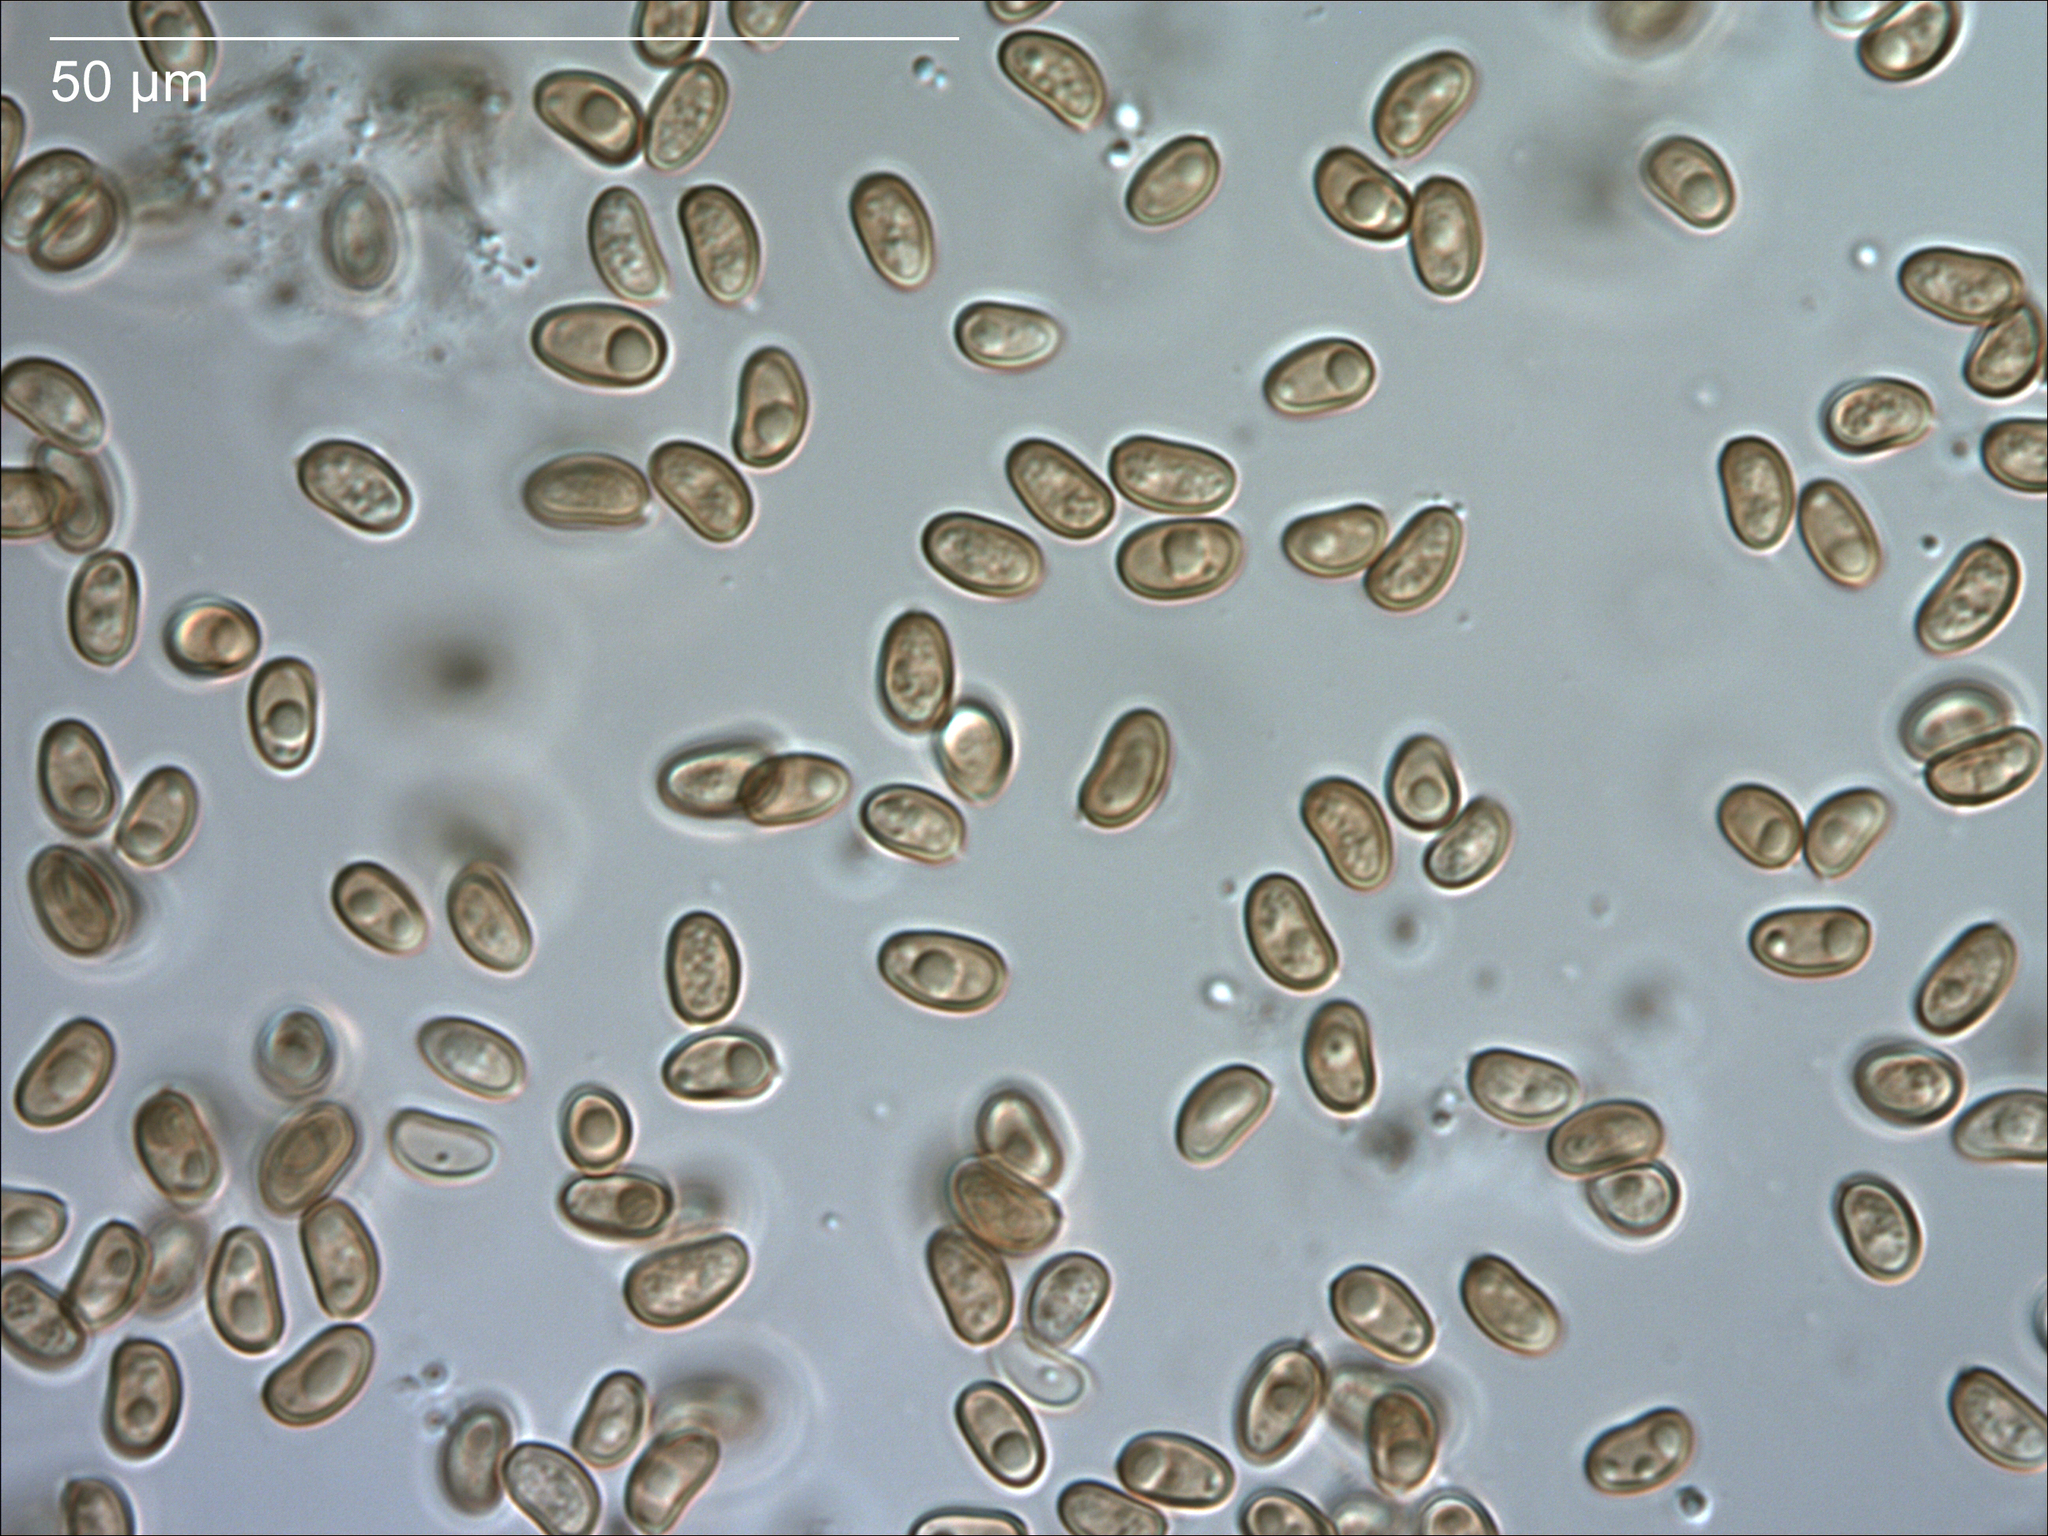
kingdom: Fungi
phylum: Basidiomycota
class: Agaricomycetes
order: Agaricales
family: Strophariaceae
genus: Pholiota
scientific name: Pholiota chrysmoides
